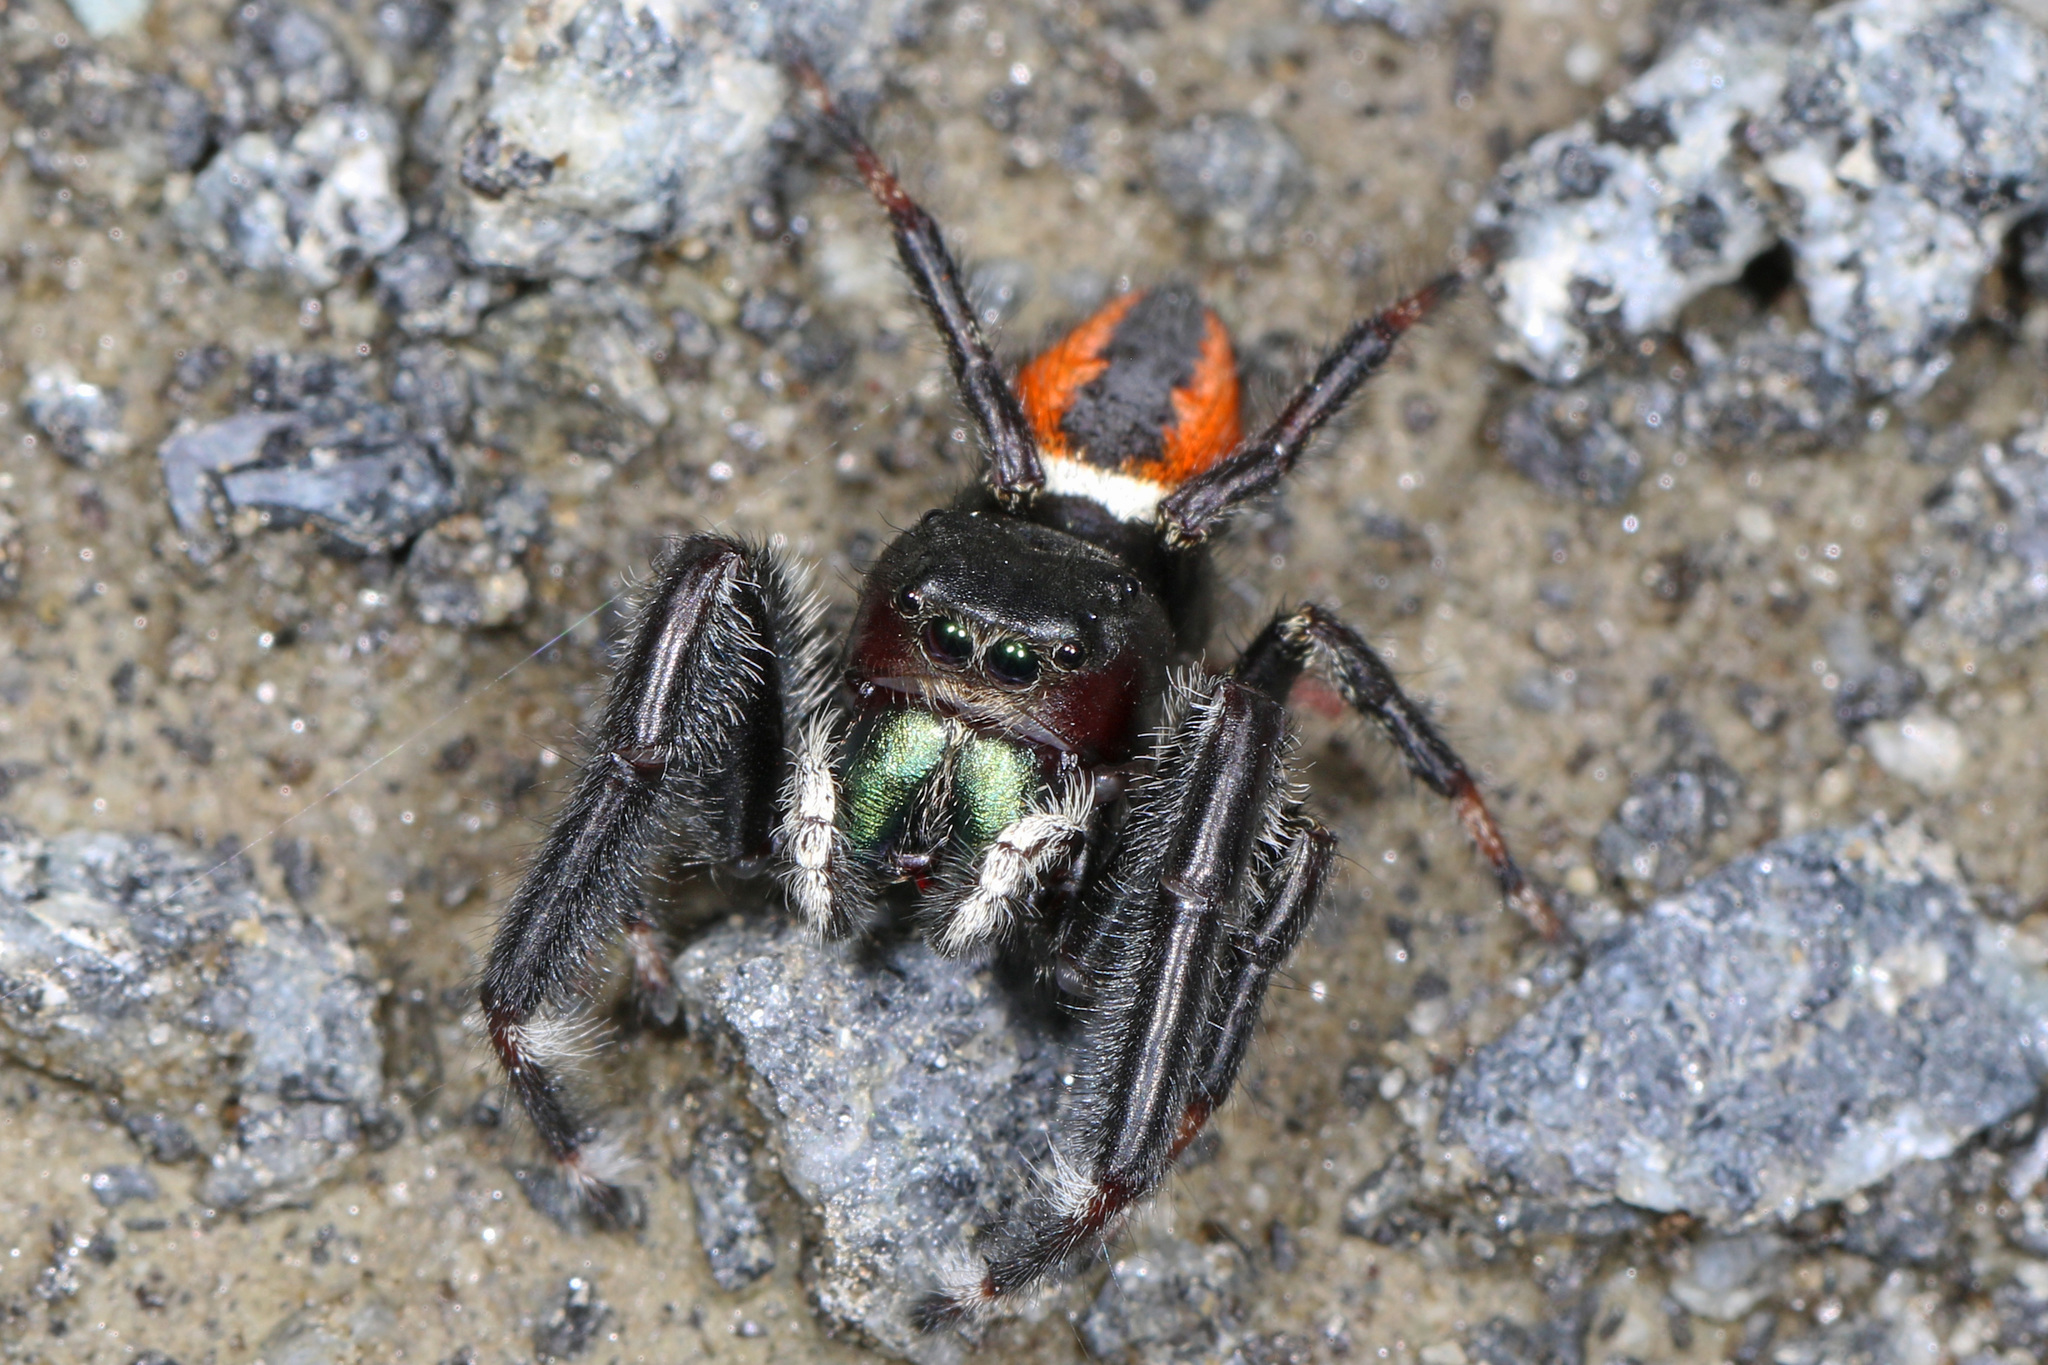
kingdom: Animalia
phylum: Arthropoda
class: Arachnida
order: Araneae
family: Salticidae
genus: Phidippus
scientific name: Phidippus clarus
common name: Brilliant jumping spider
